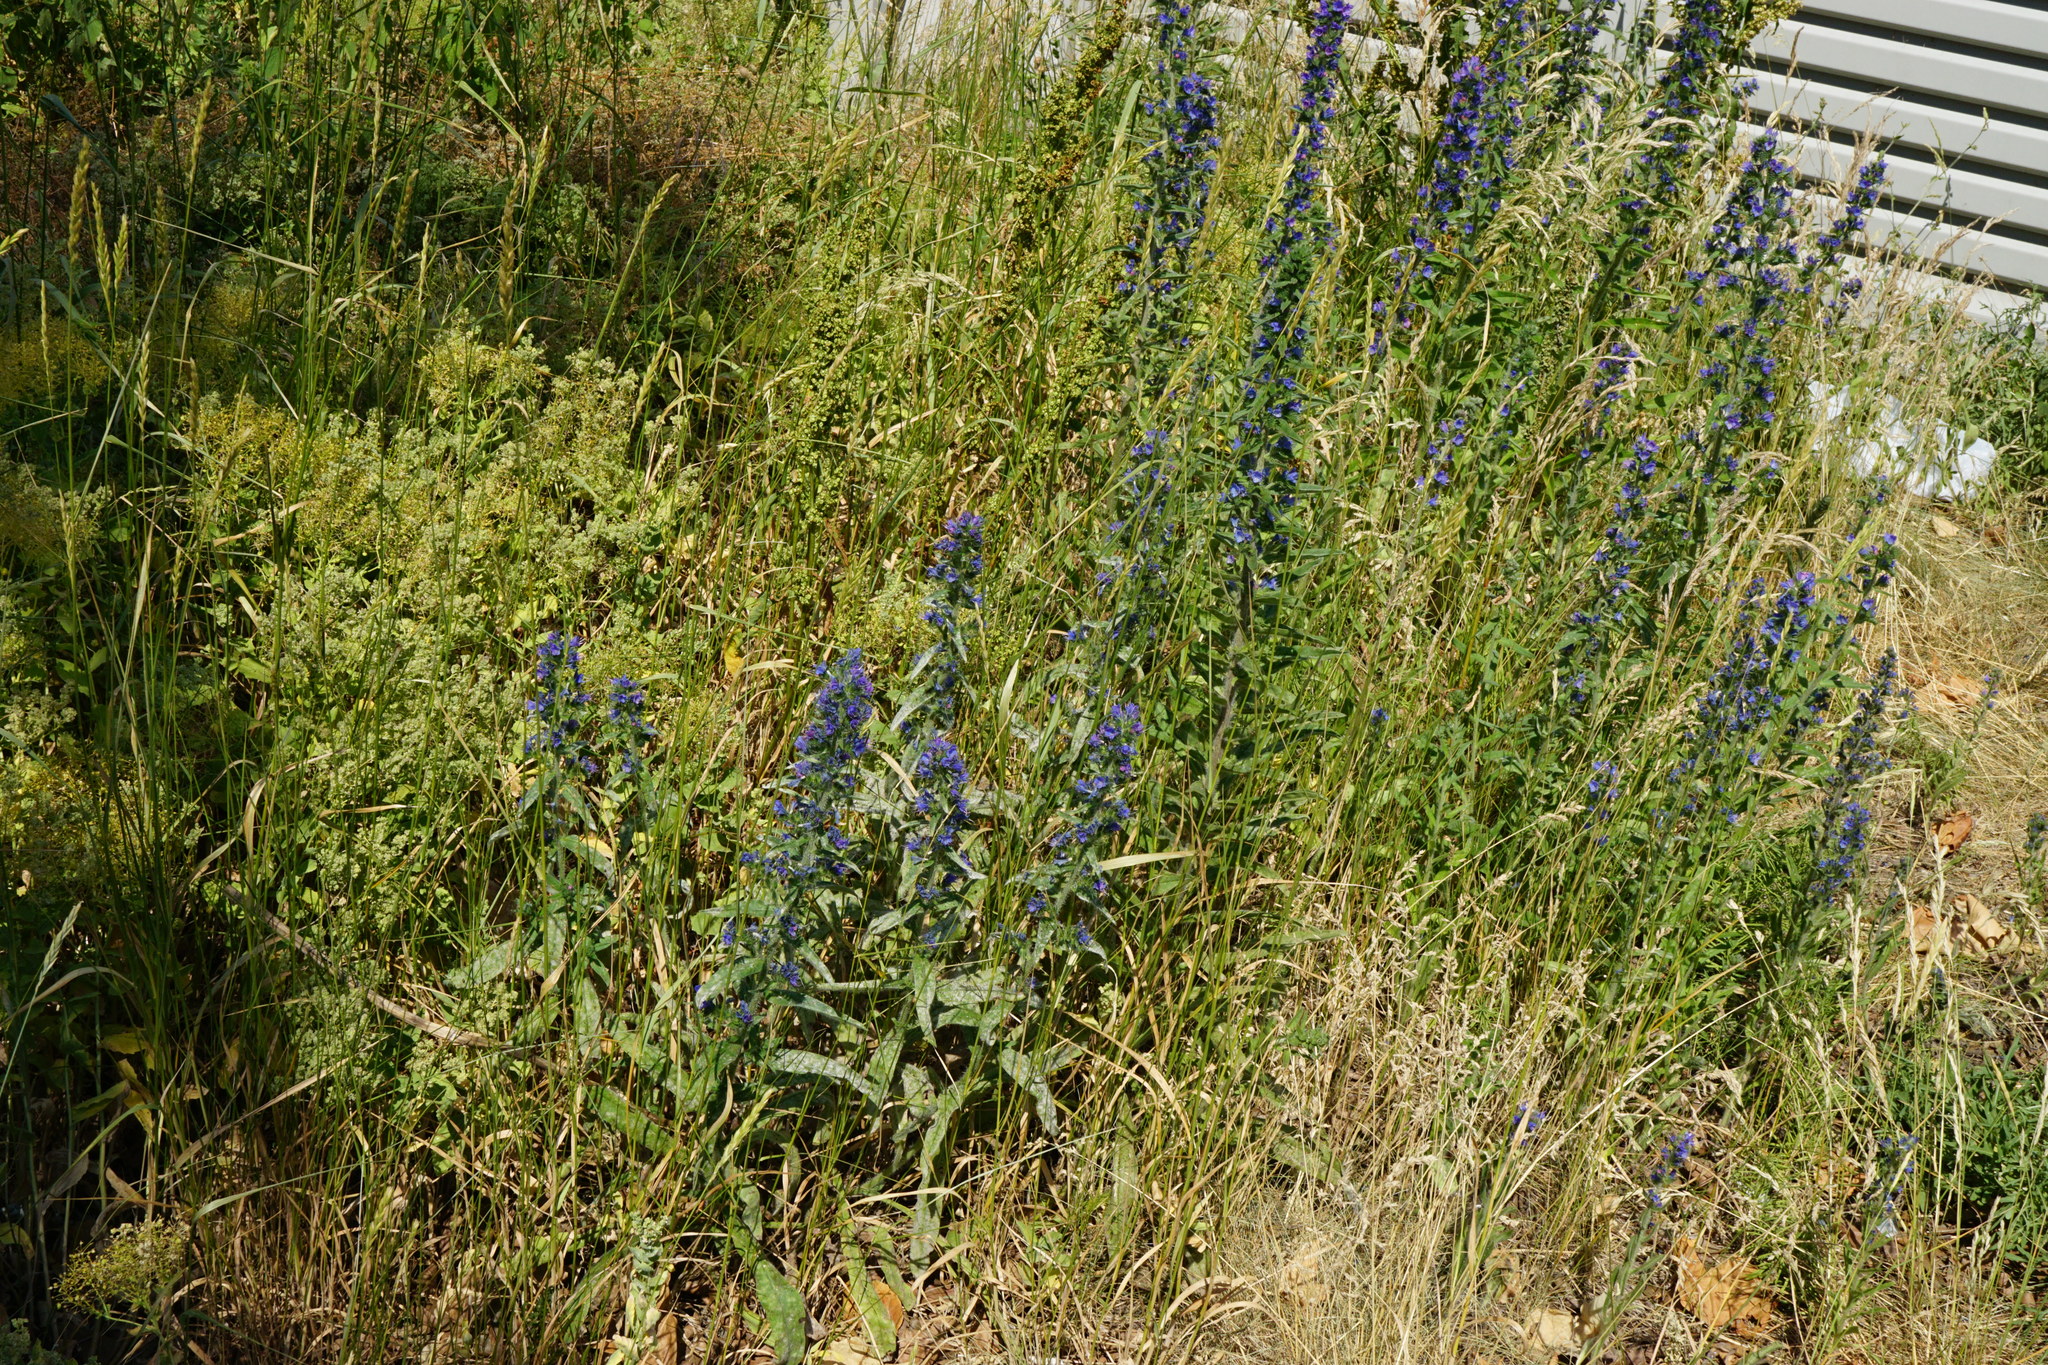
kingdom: Plantae
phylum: Tracheophyta
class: Magnoliopsida
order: Boraginales
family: Boraginaceae
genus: Echium
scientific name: Echium vulgare
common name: Common viper's bugloss
